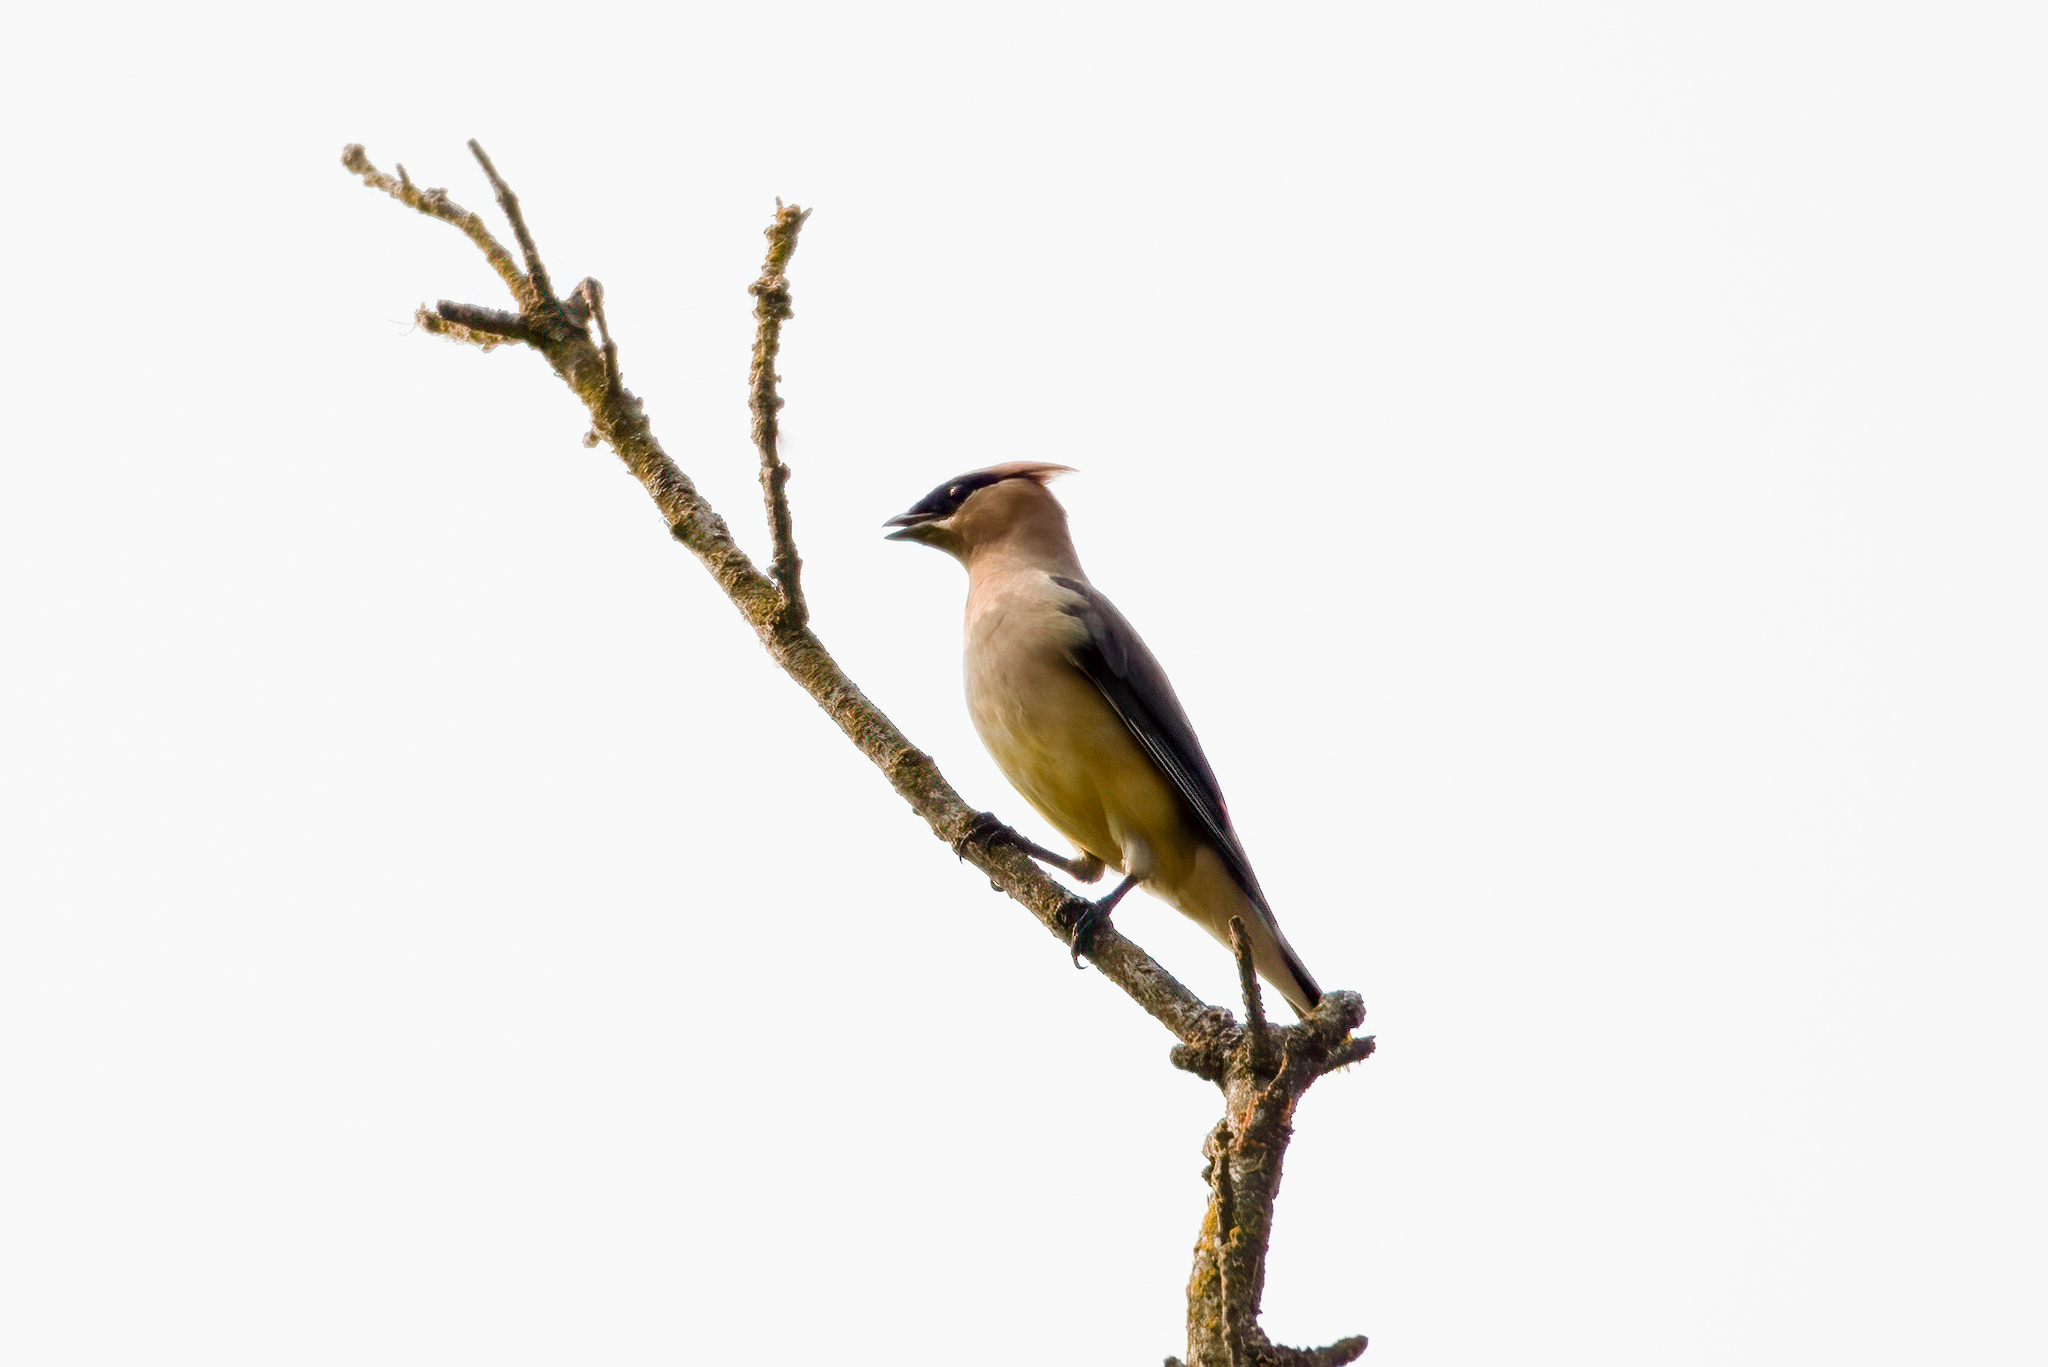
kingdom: Animalia
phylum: Chordata
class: Aves
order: Passeriformes
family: Bombycillidae
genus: Bombycilla
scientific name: Bombycilla cedrorum
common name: Cedar waxwing
